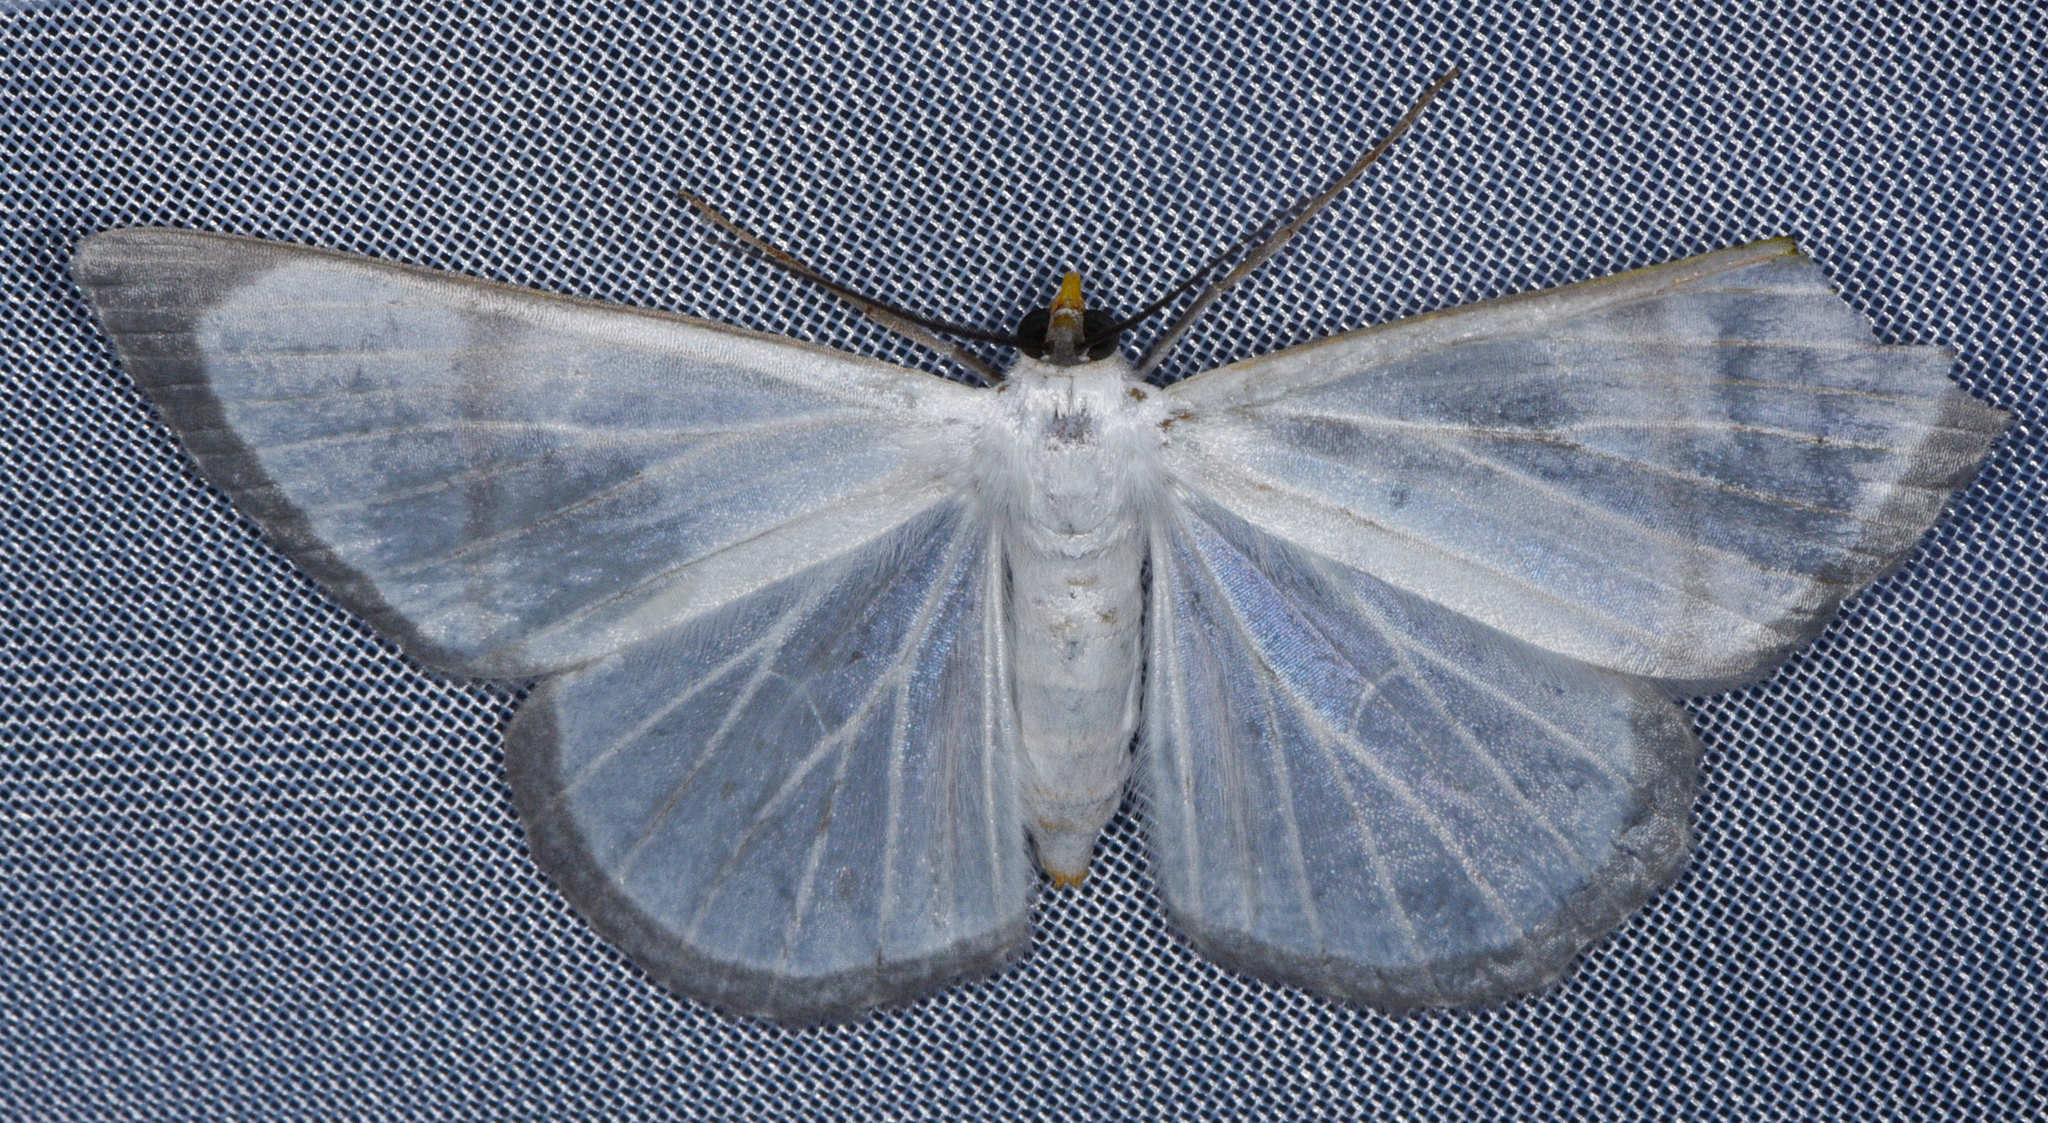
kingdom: Animalia
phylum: Arthropoda
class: Insecta
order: Lepidoptera
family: Geometridae
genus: Perigramma
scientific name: Perigramma albivena
